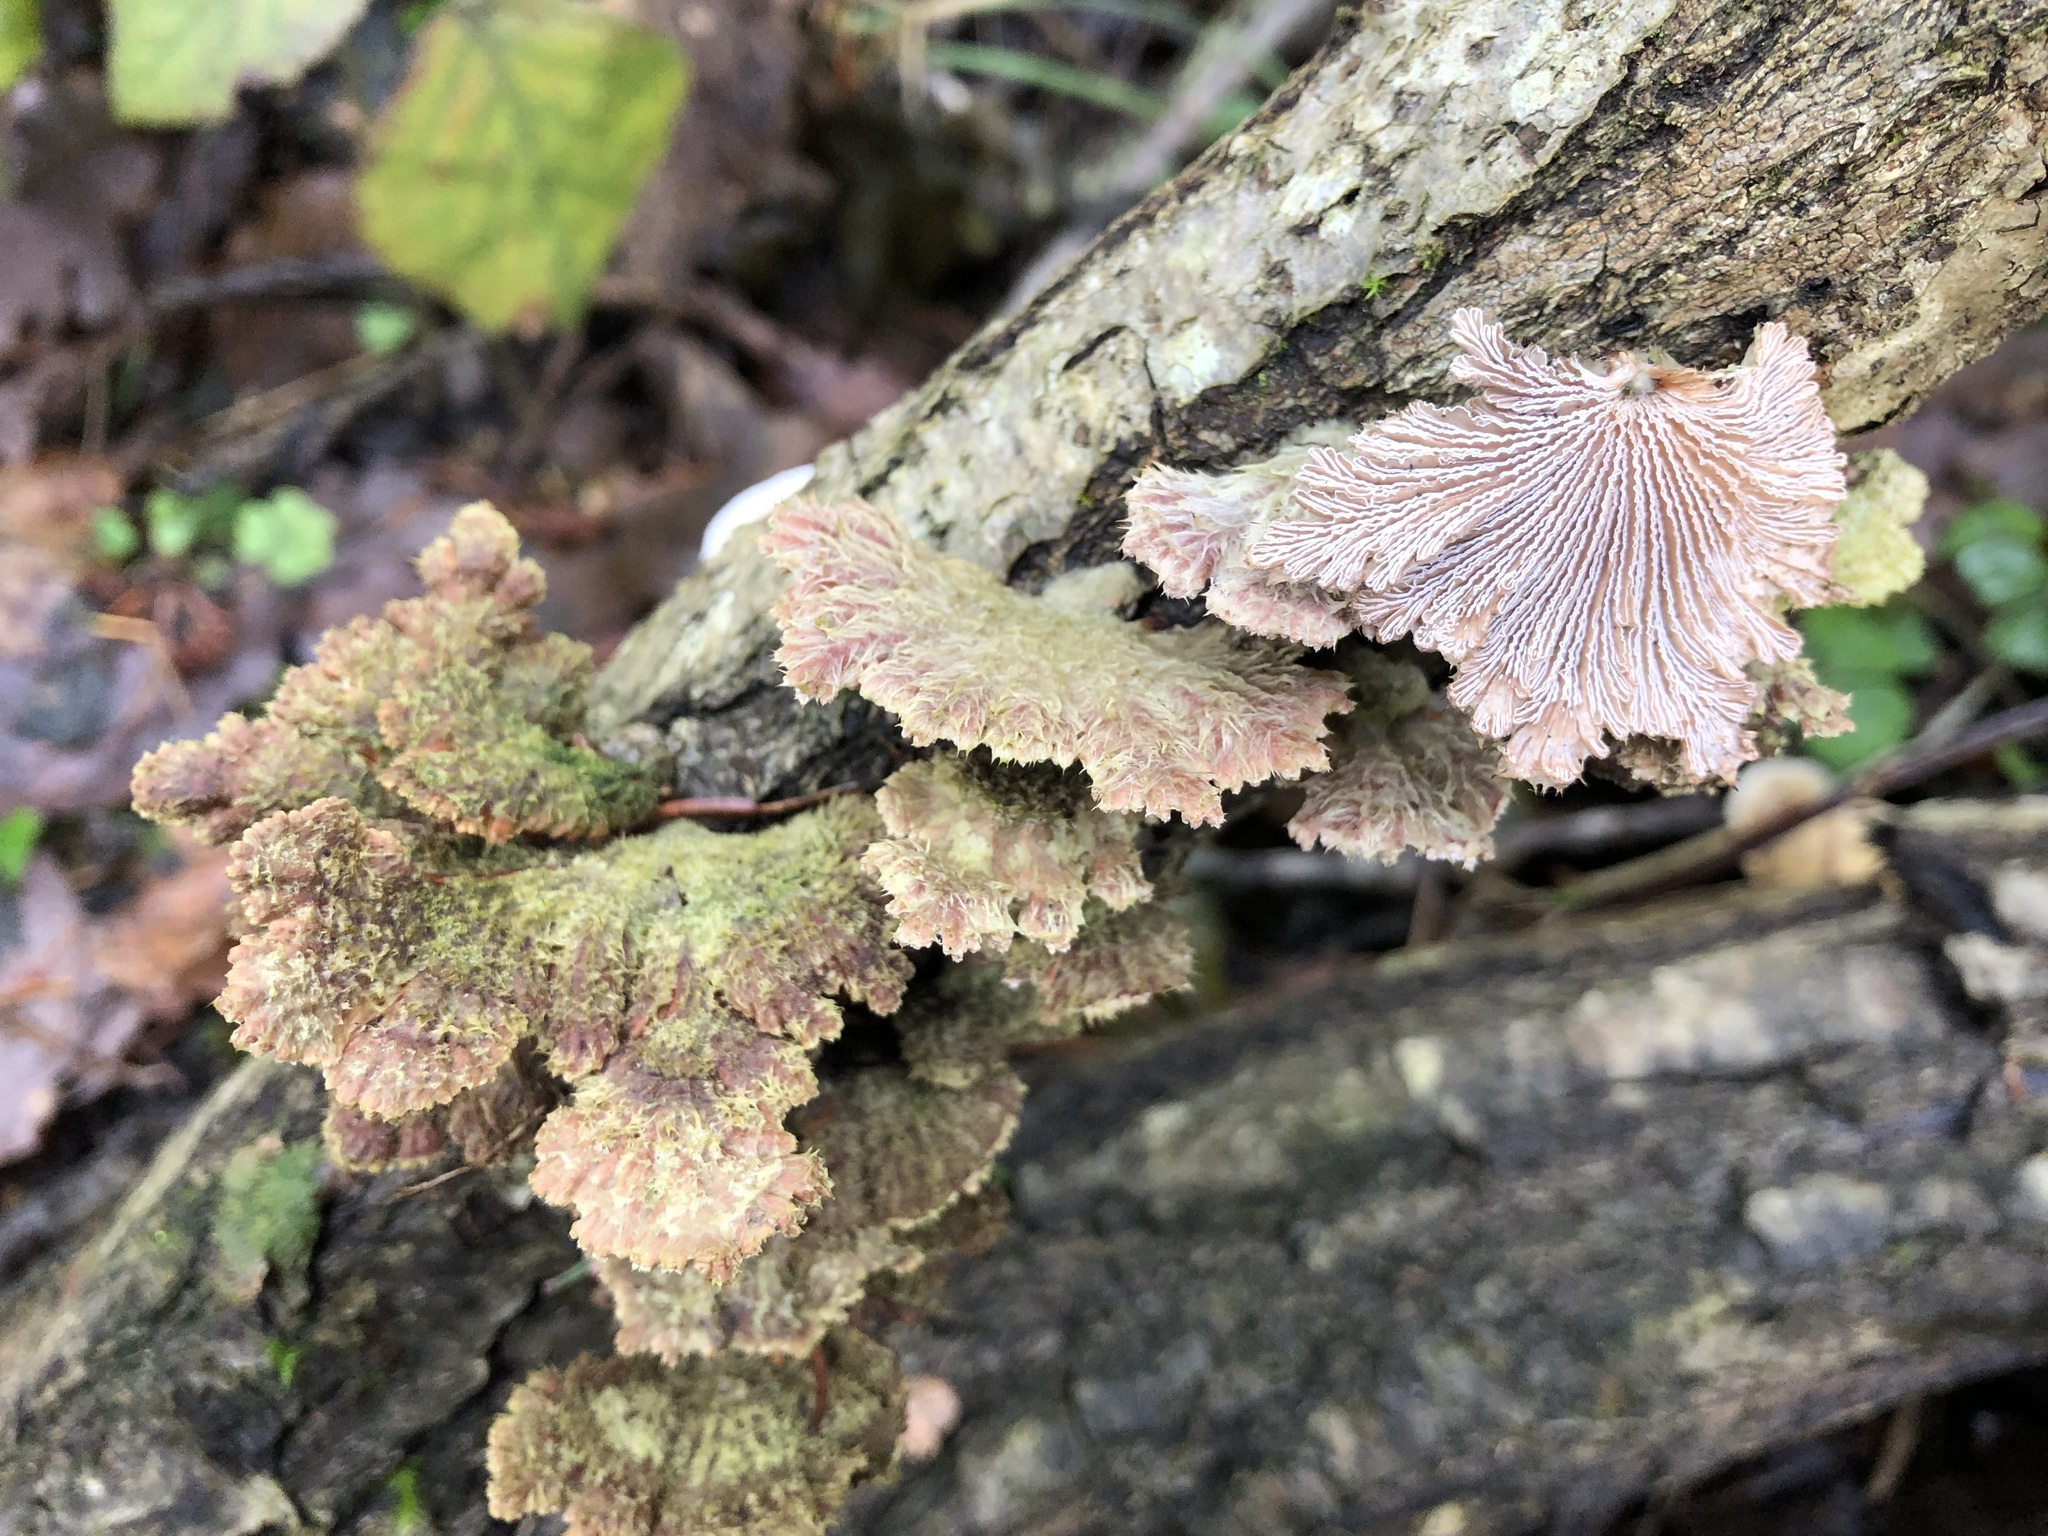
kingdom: Fungi
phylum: Basidiomycota
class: Agaricomycetes
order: Agaricales
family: Schizophyllaceae
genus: Schizophyllum
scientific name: Schizophyllum commune
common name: Common porecrust
